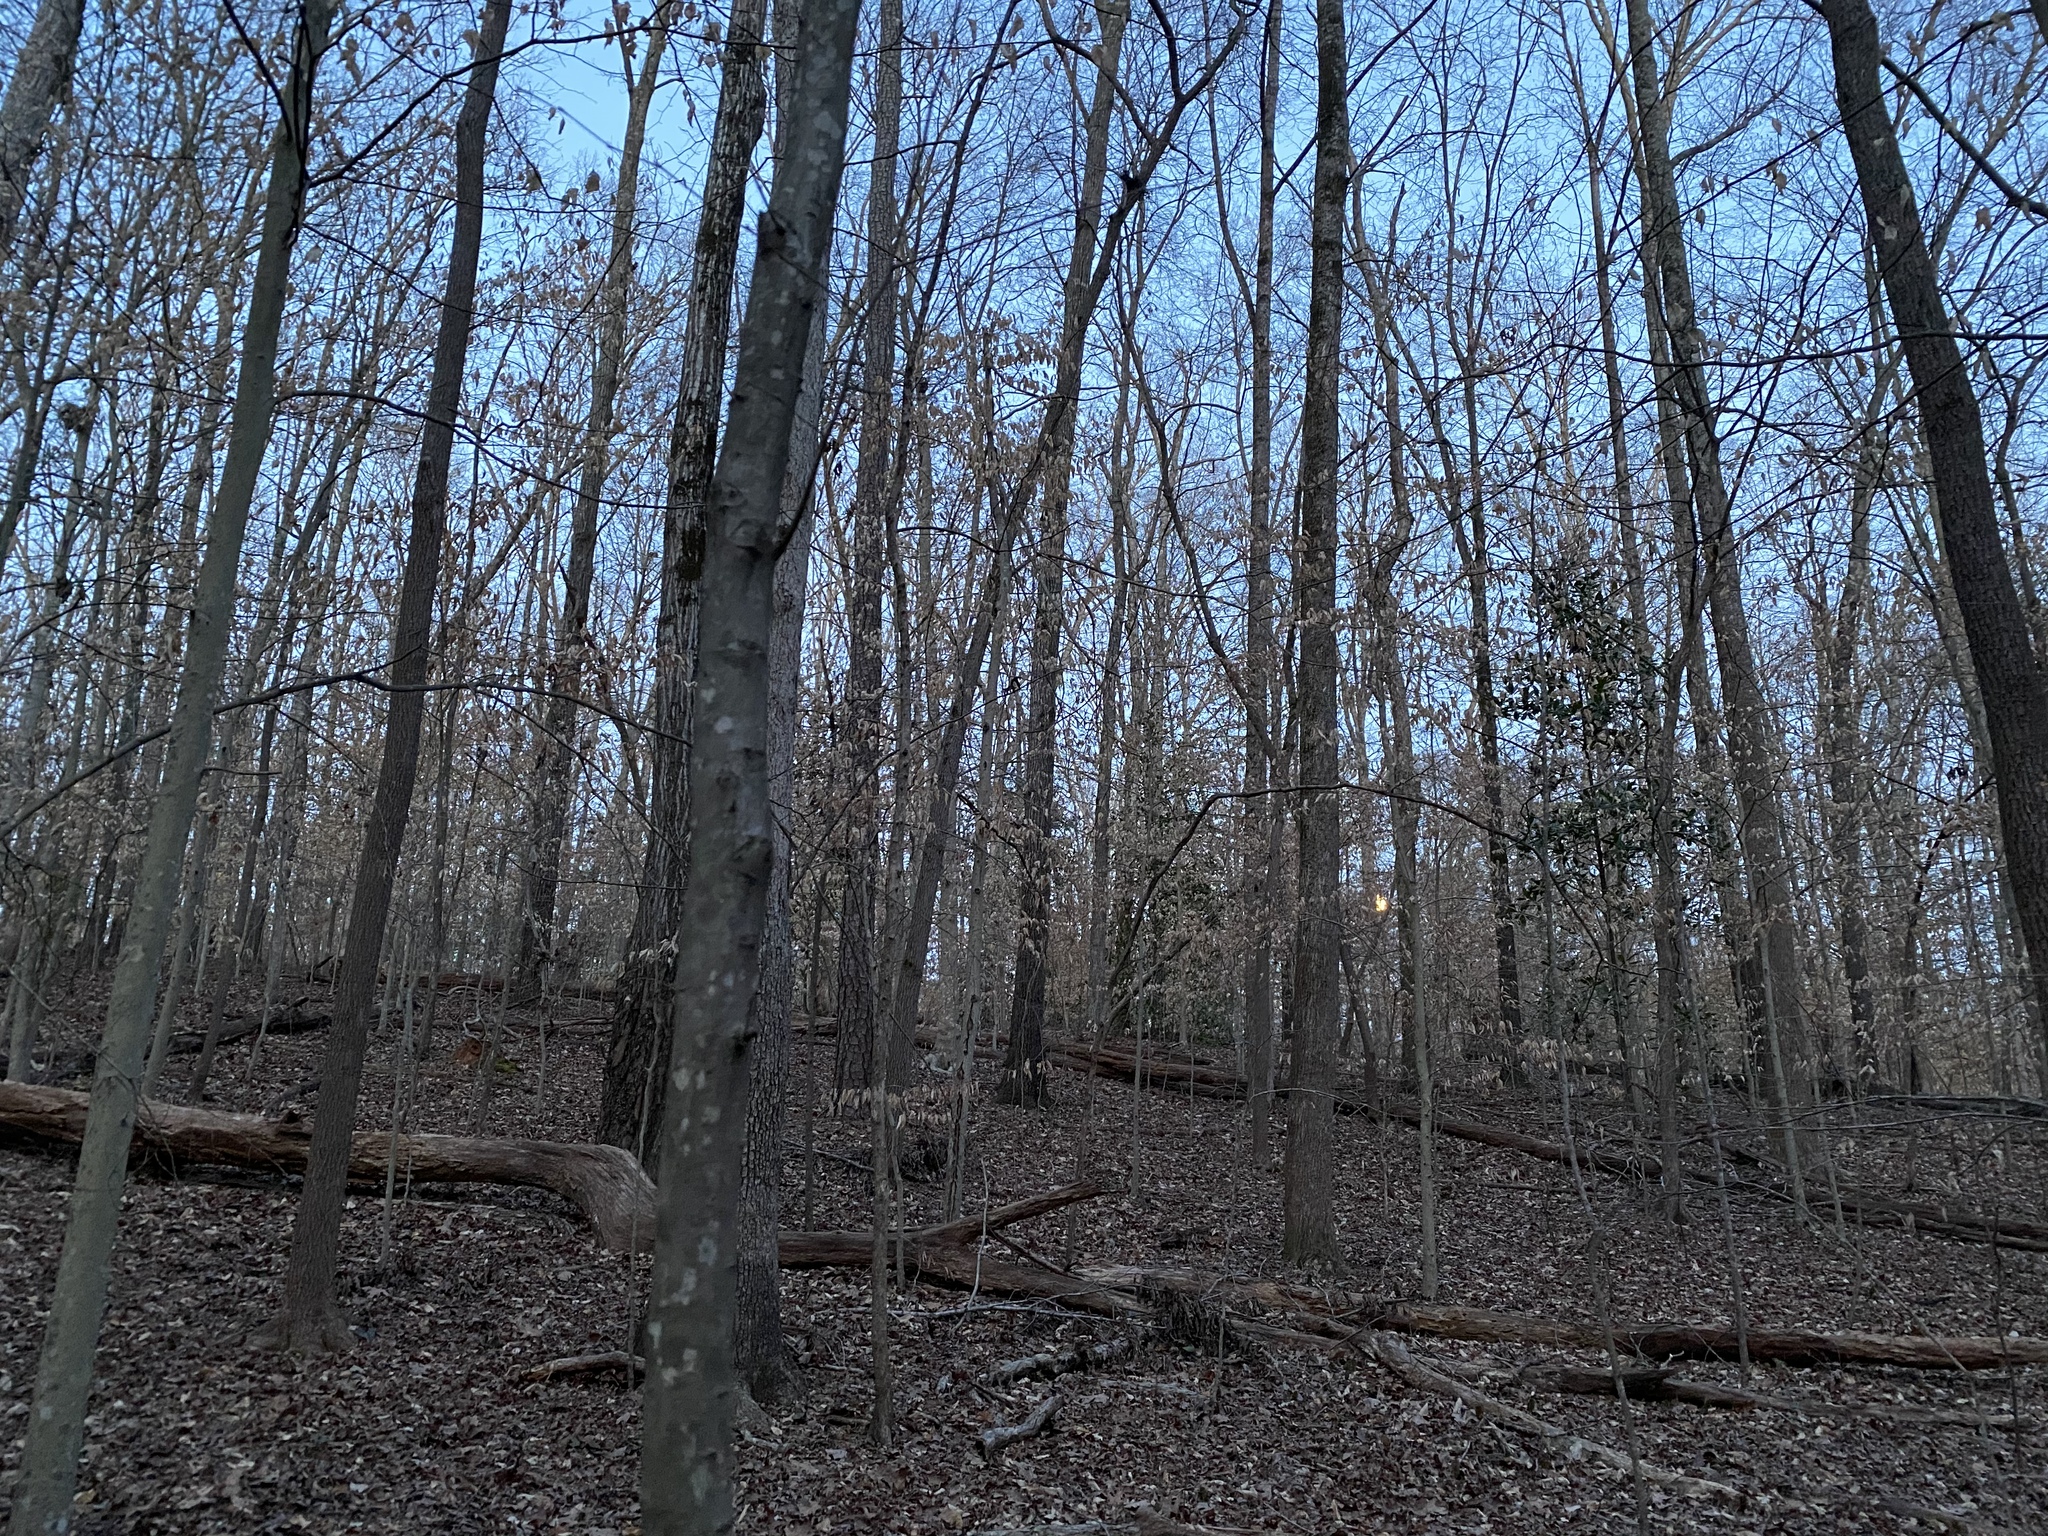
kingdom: Animalia
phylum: Chordata
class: Aves
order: Strigiformes
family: Strigidae
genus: Strix
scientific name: Strix varia
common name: Barred owl
